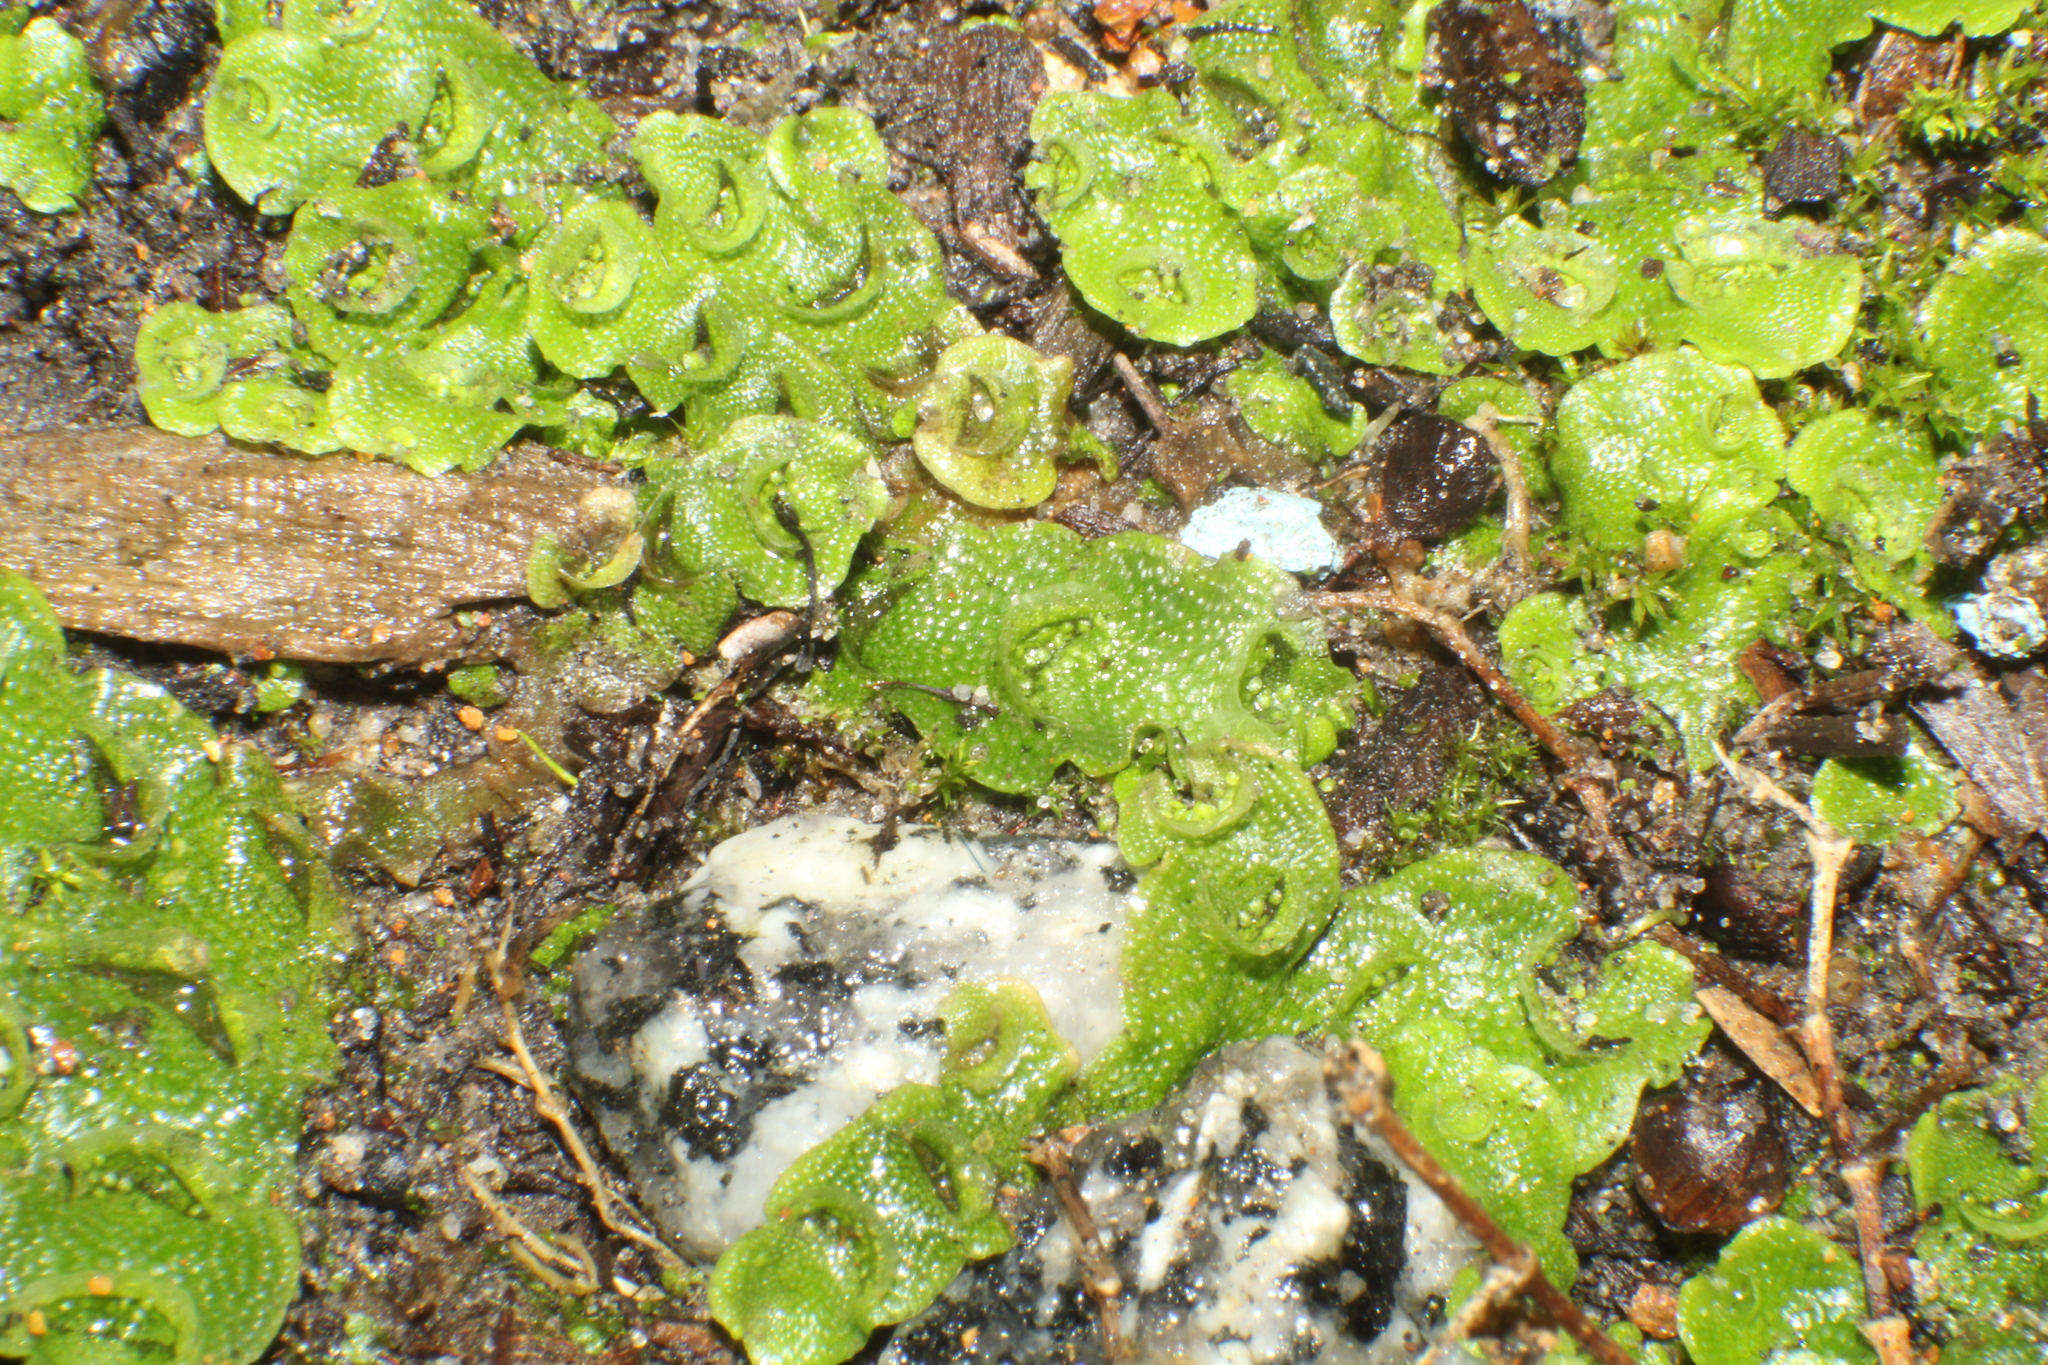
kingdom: Plantae
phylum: Marchantiophyta
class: Marchantiopsida
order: Lunulariales
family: Lunulariaceae
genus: Lunularia
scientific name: Lunularia cruciata
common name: Crescent-cup liverwort
